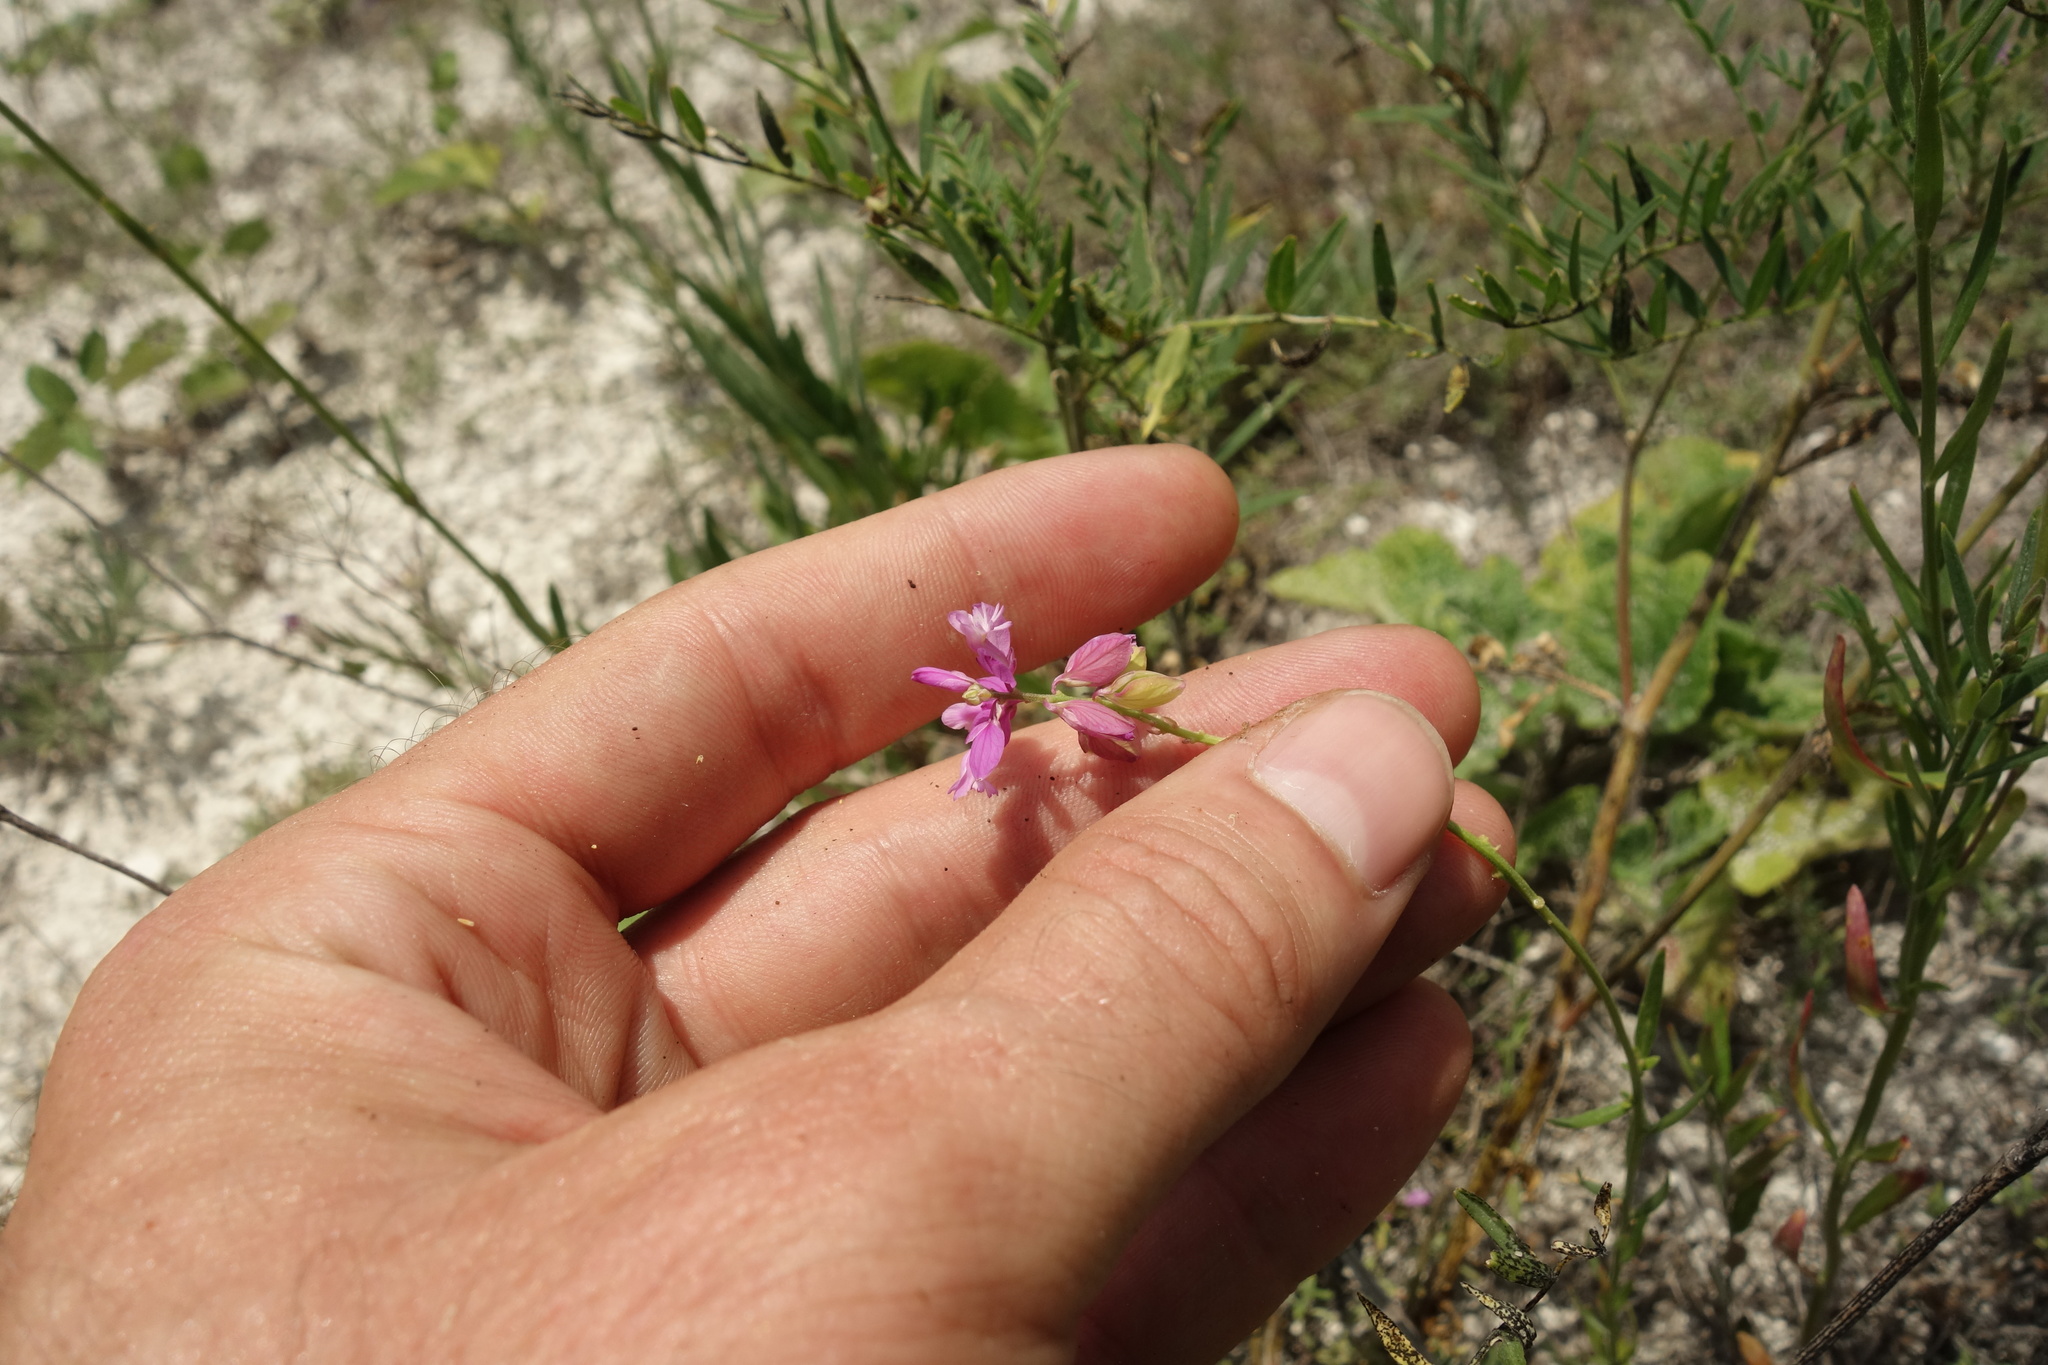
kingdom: Plantae
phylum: Tracheophyta
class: Magnoliopsida
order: Fabales
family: Polygalaceae
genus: Polygala
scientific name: Polygala nicaeensis
